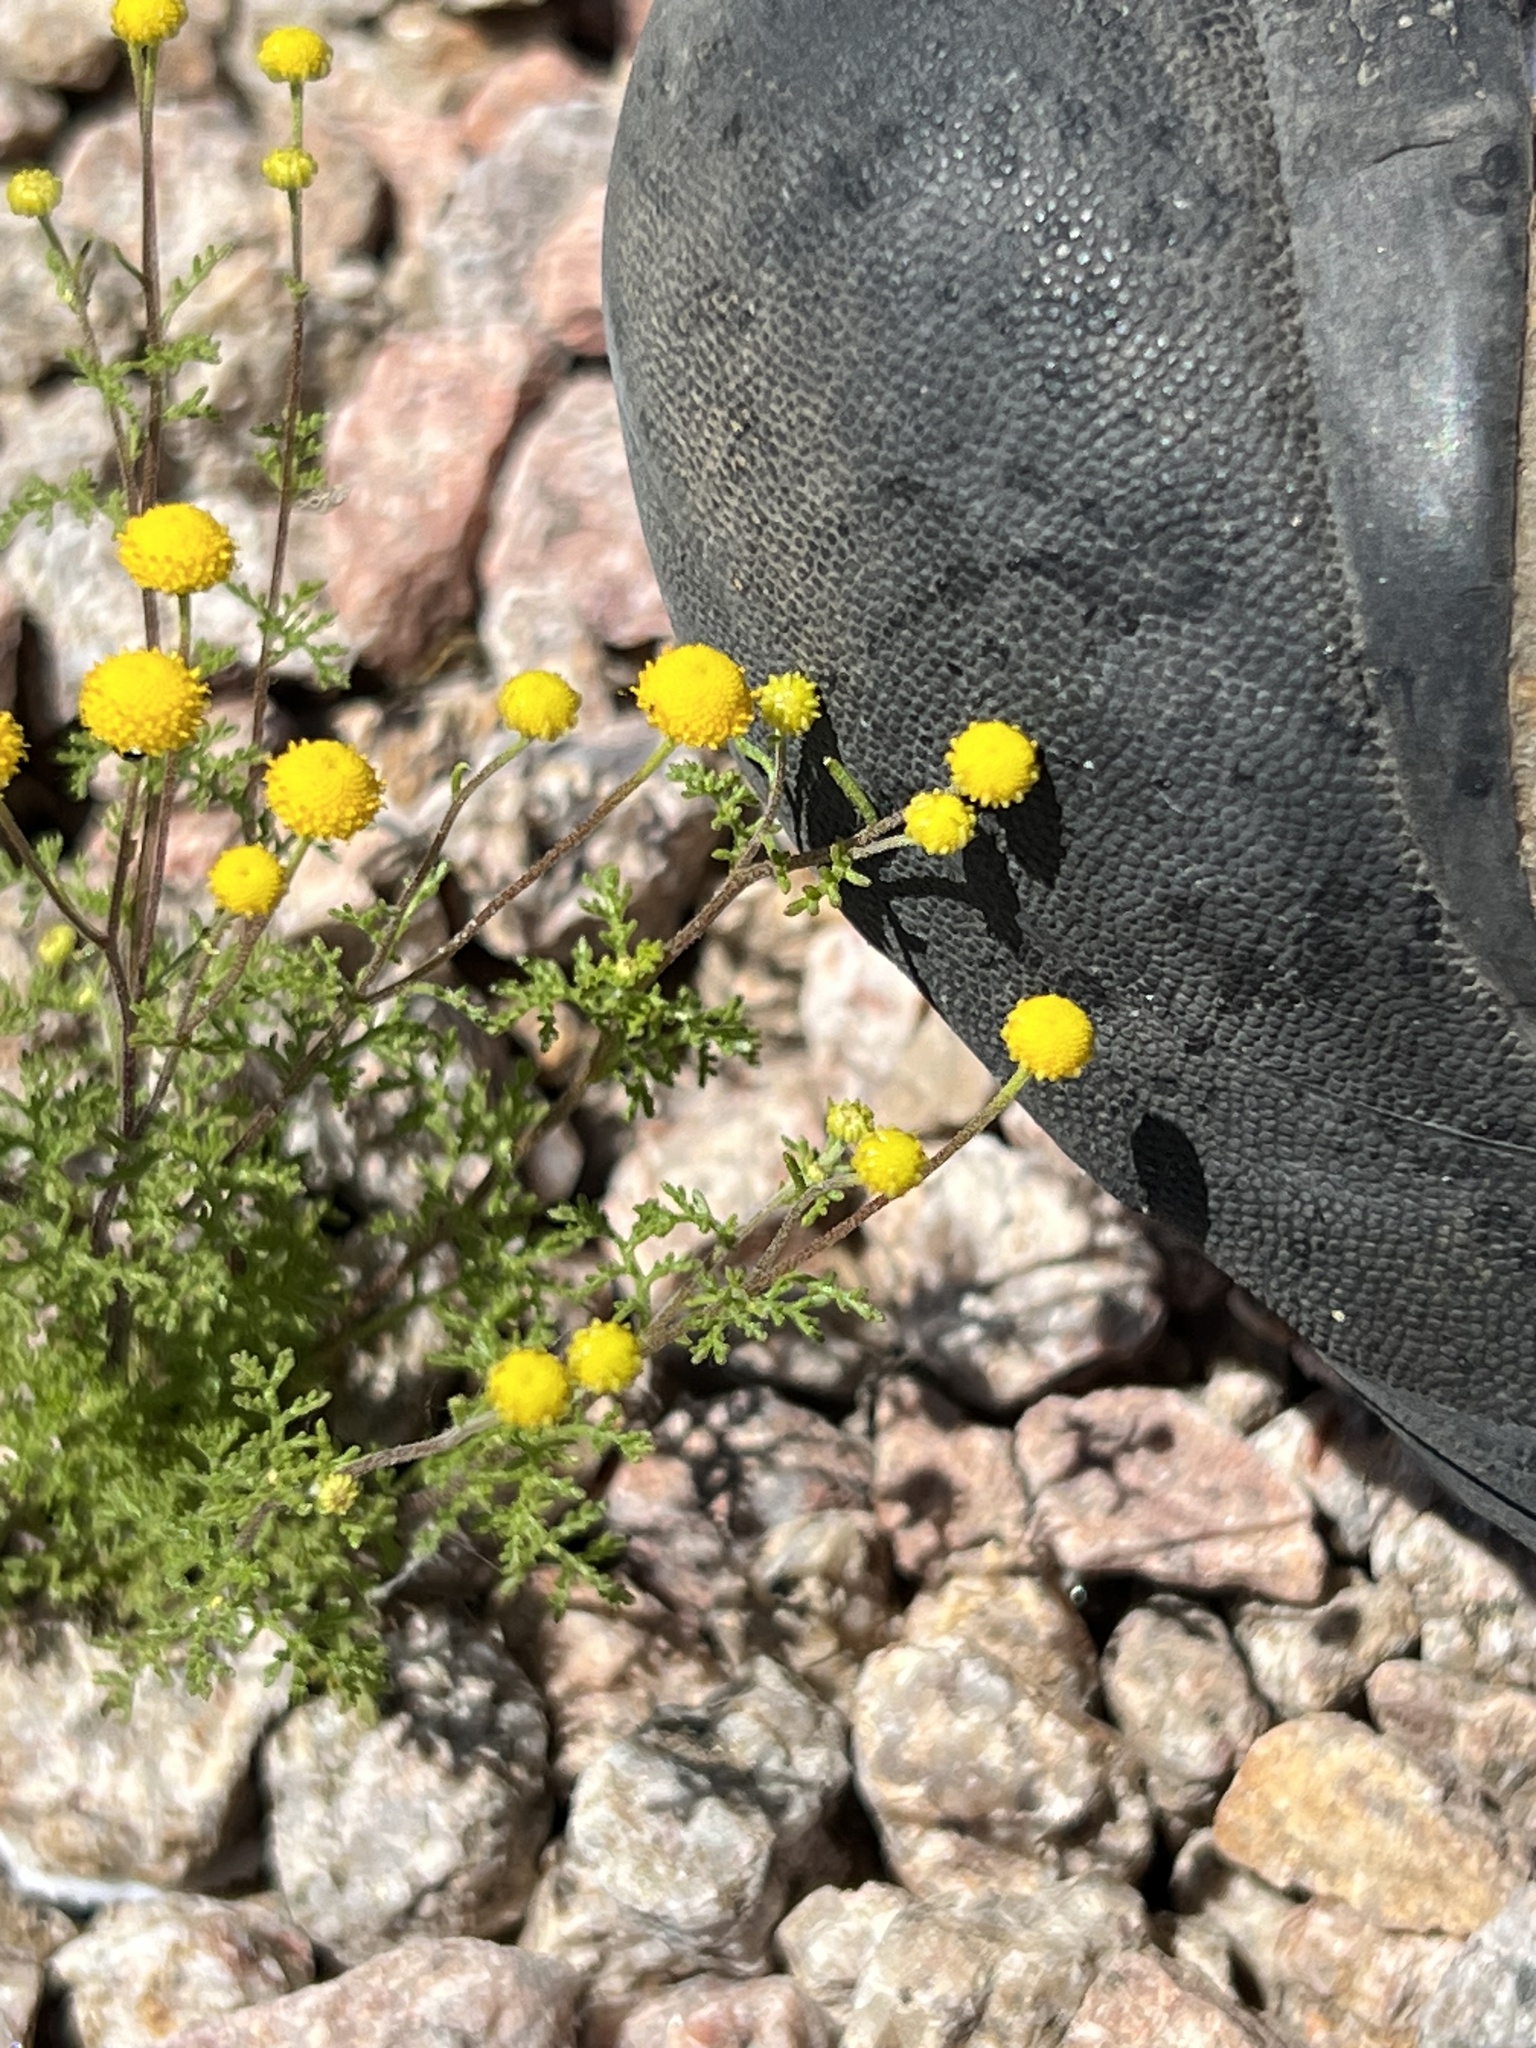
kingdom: Plantae
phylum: Tracheophyta
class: Magnoliopsida
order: Asterales
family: Asteraceae
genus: Oncosiphon
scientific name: Oncosiphon pilulifer
